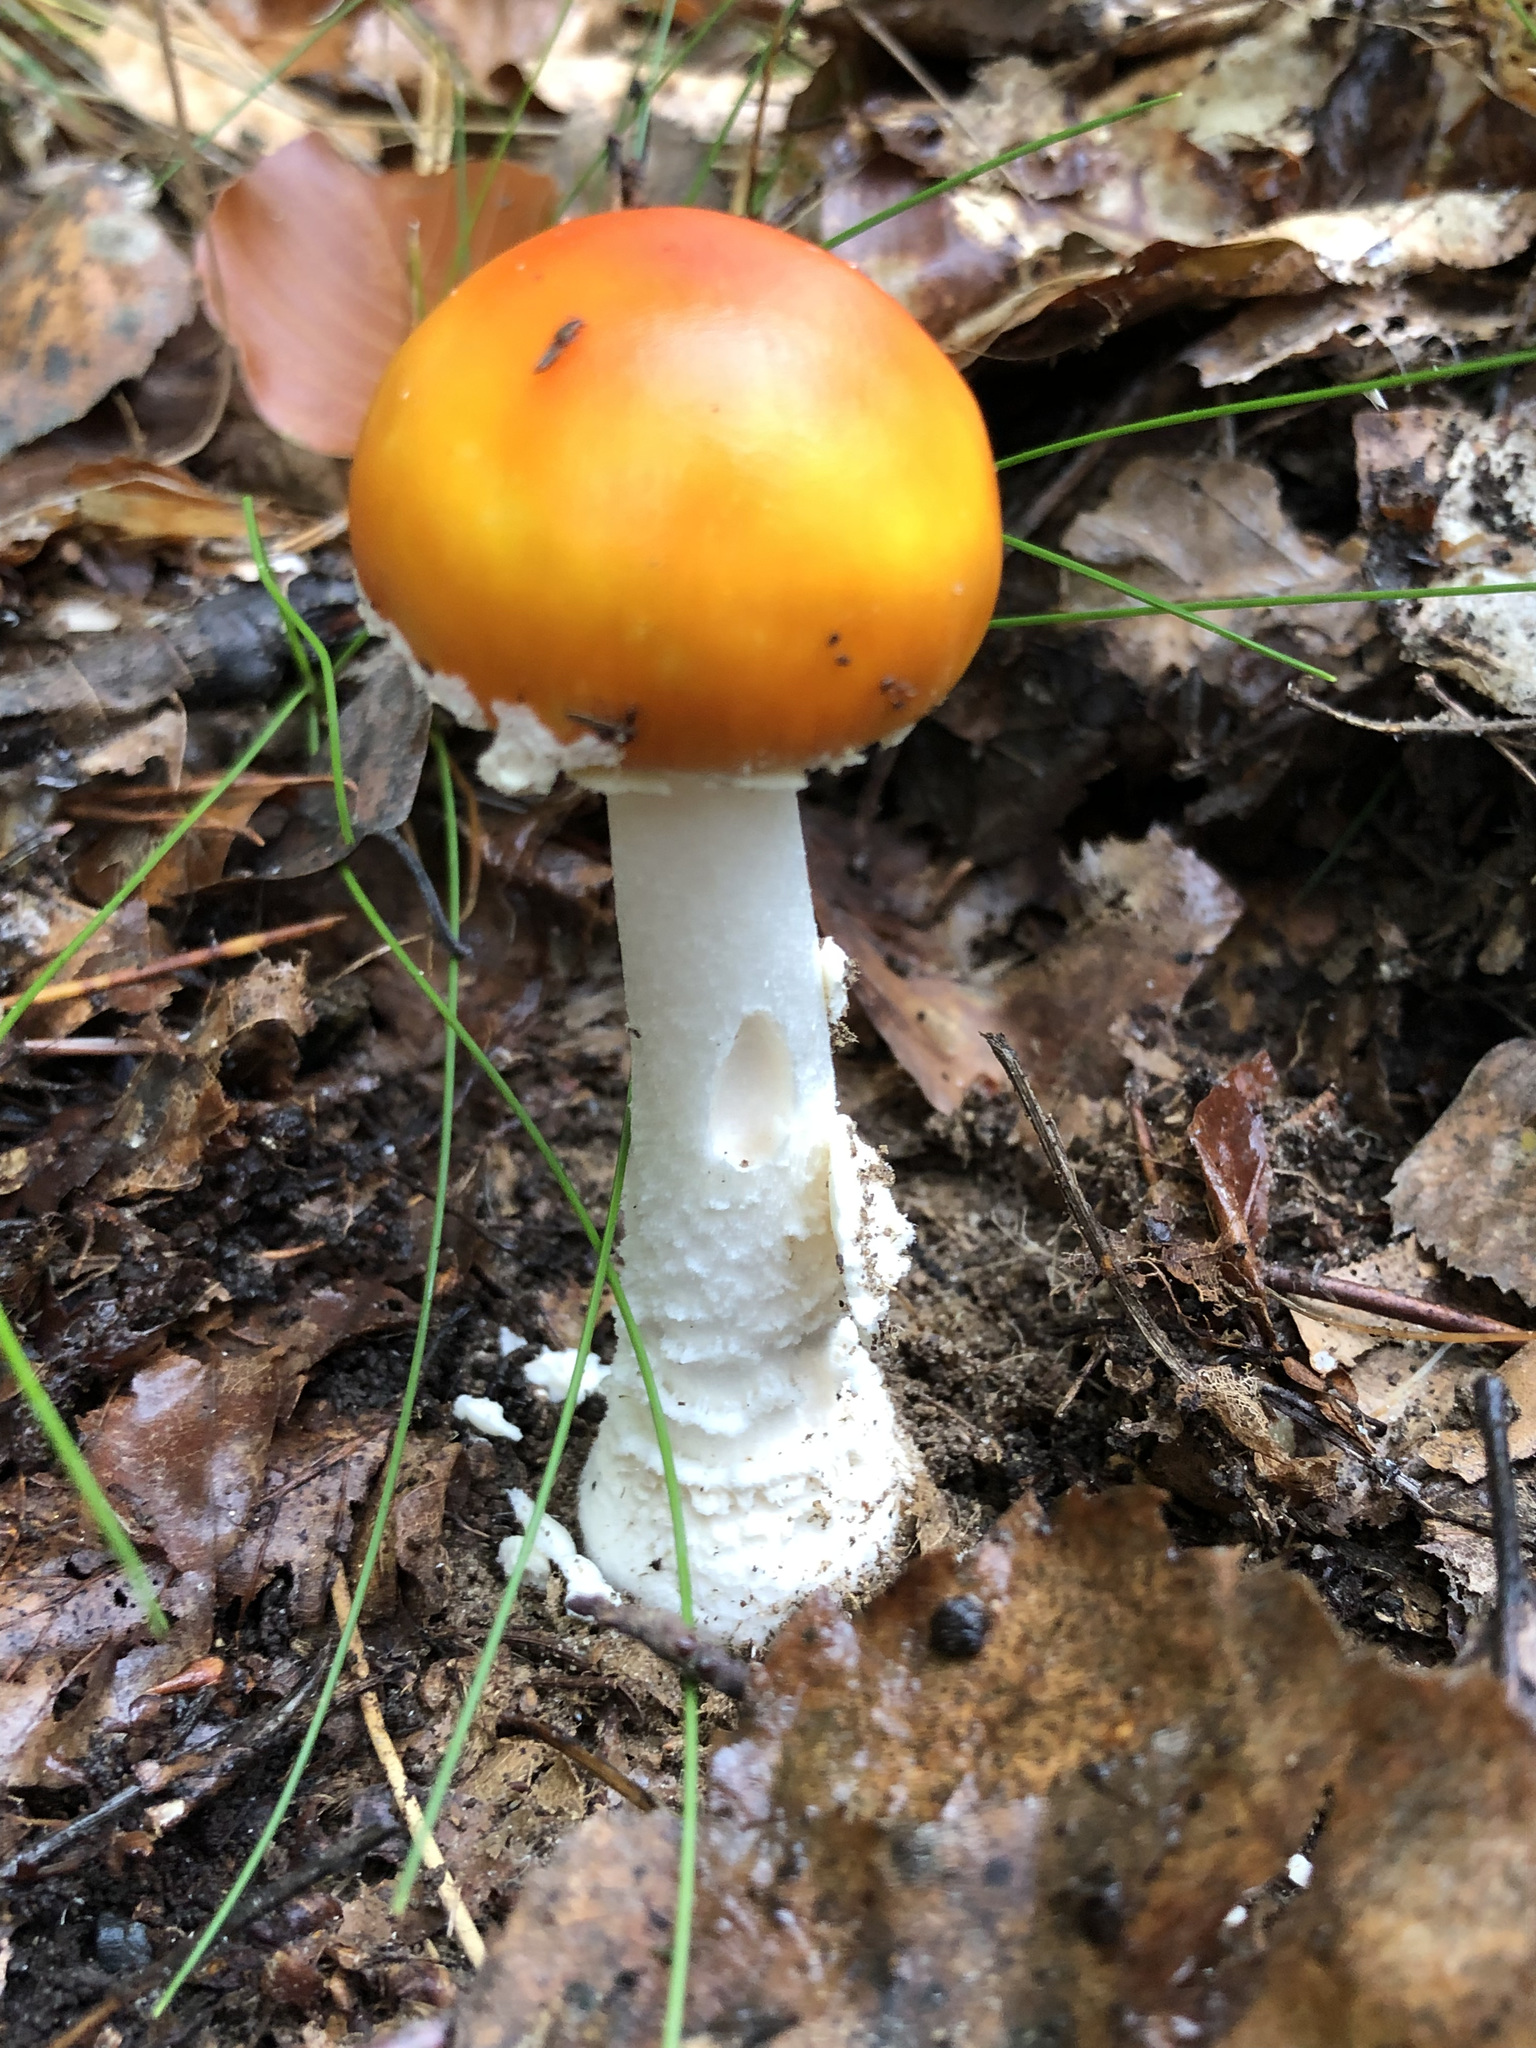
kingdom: Fungi
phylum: Basidiomycota
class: Agaricomycetes
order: Agaricales
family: Amanitaceae
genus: Amanita
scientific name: Amanita muscaria
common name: Fly agaric
